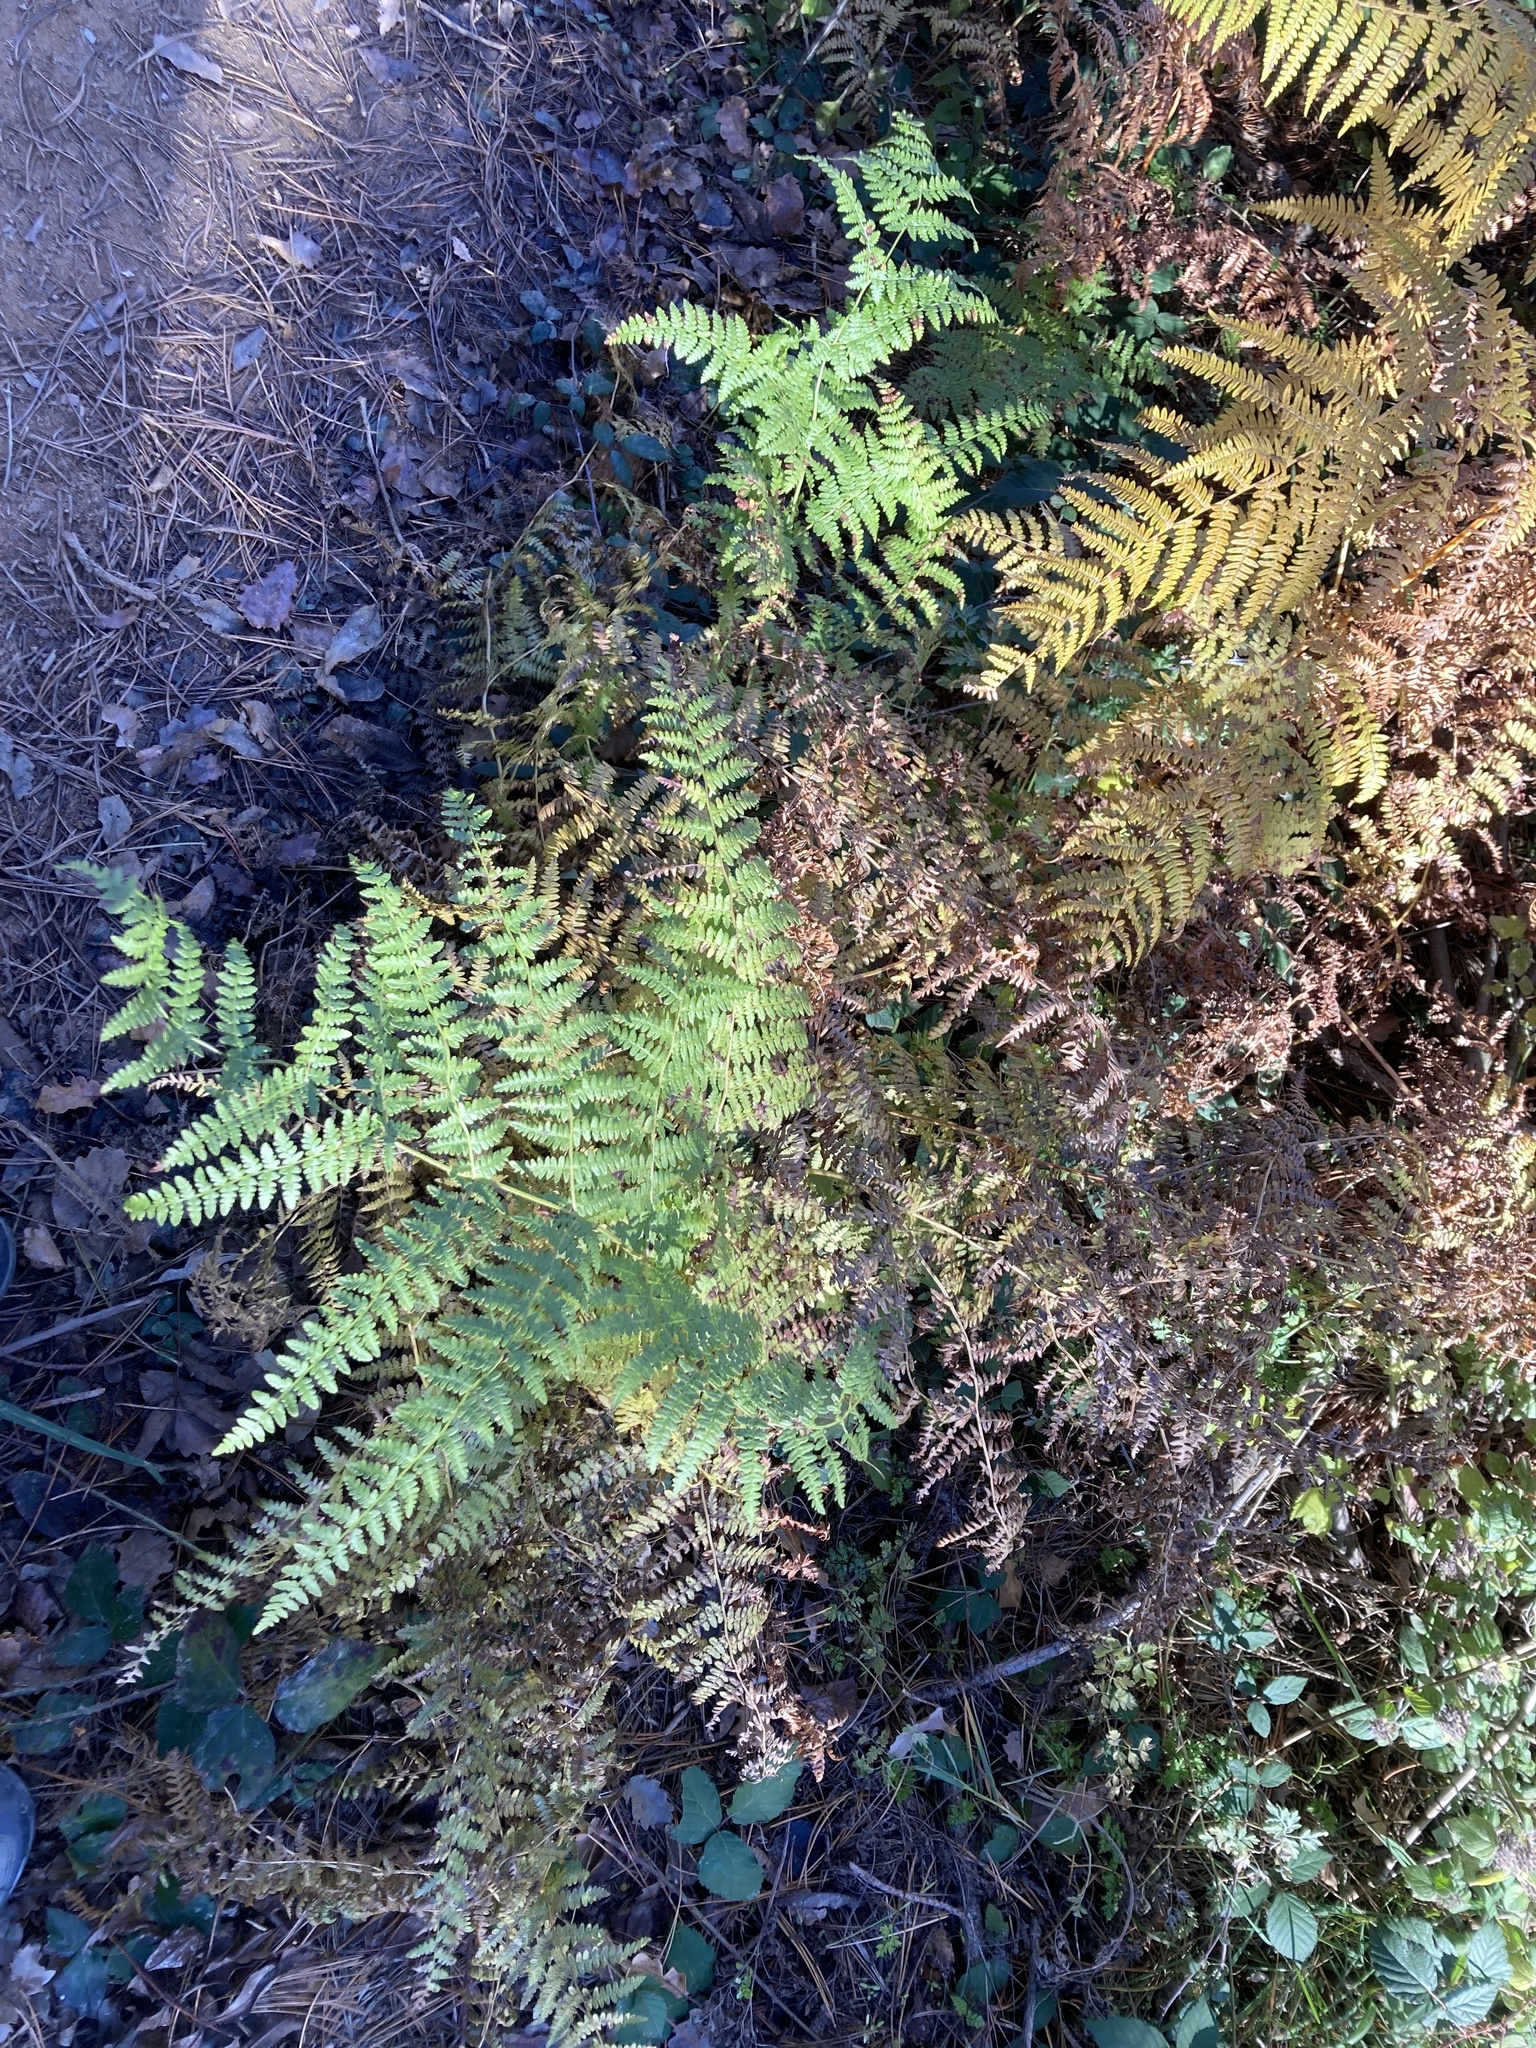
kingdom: Plantae
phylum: Tracheophyta
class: Polypodiopsida
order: Polypodiales
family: Dennstaedtiaceae
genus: Pteridium
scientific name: Pteridium aquilinum
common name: Bracken
